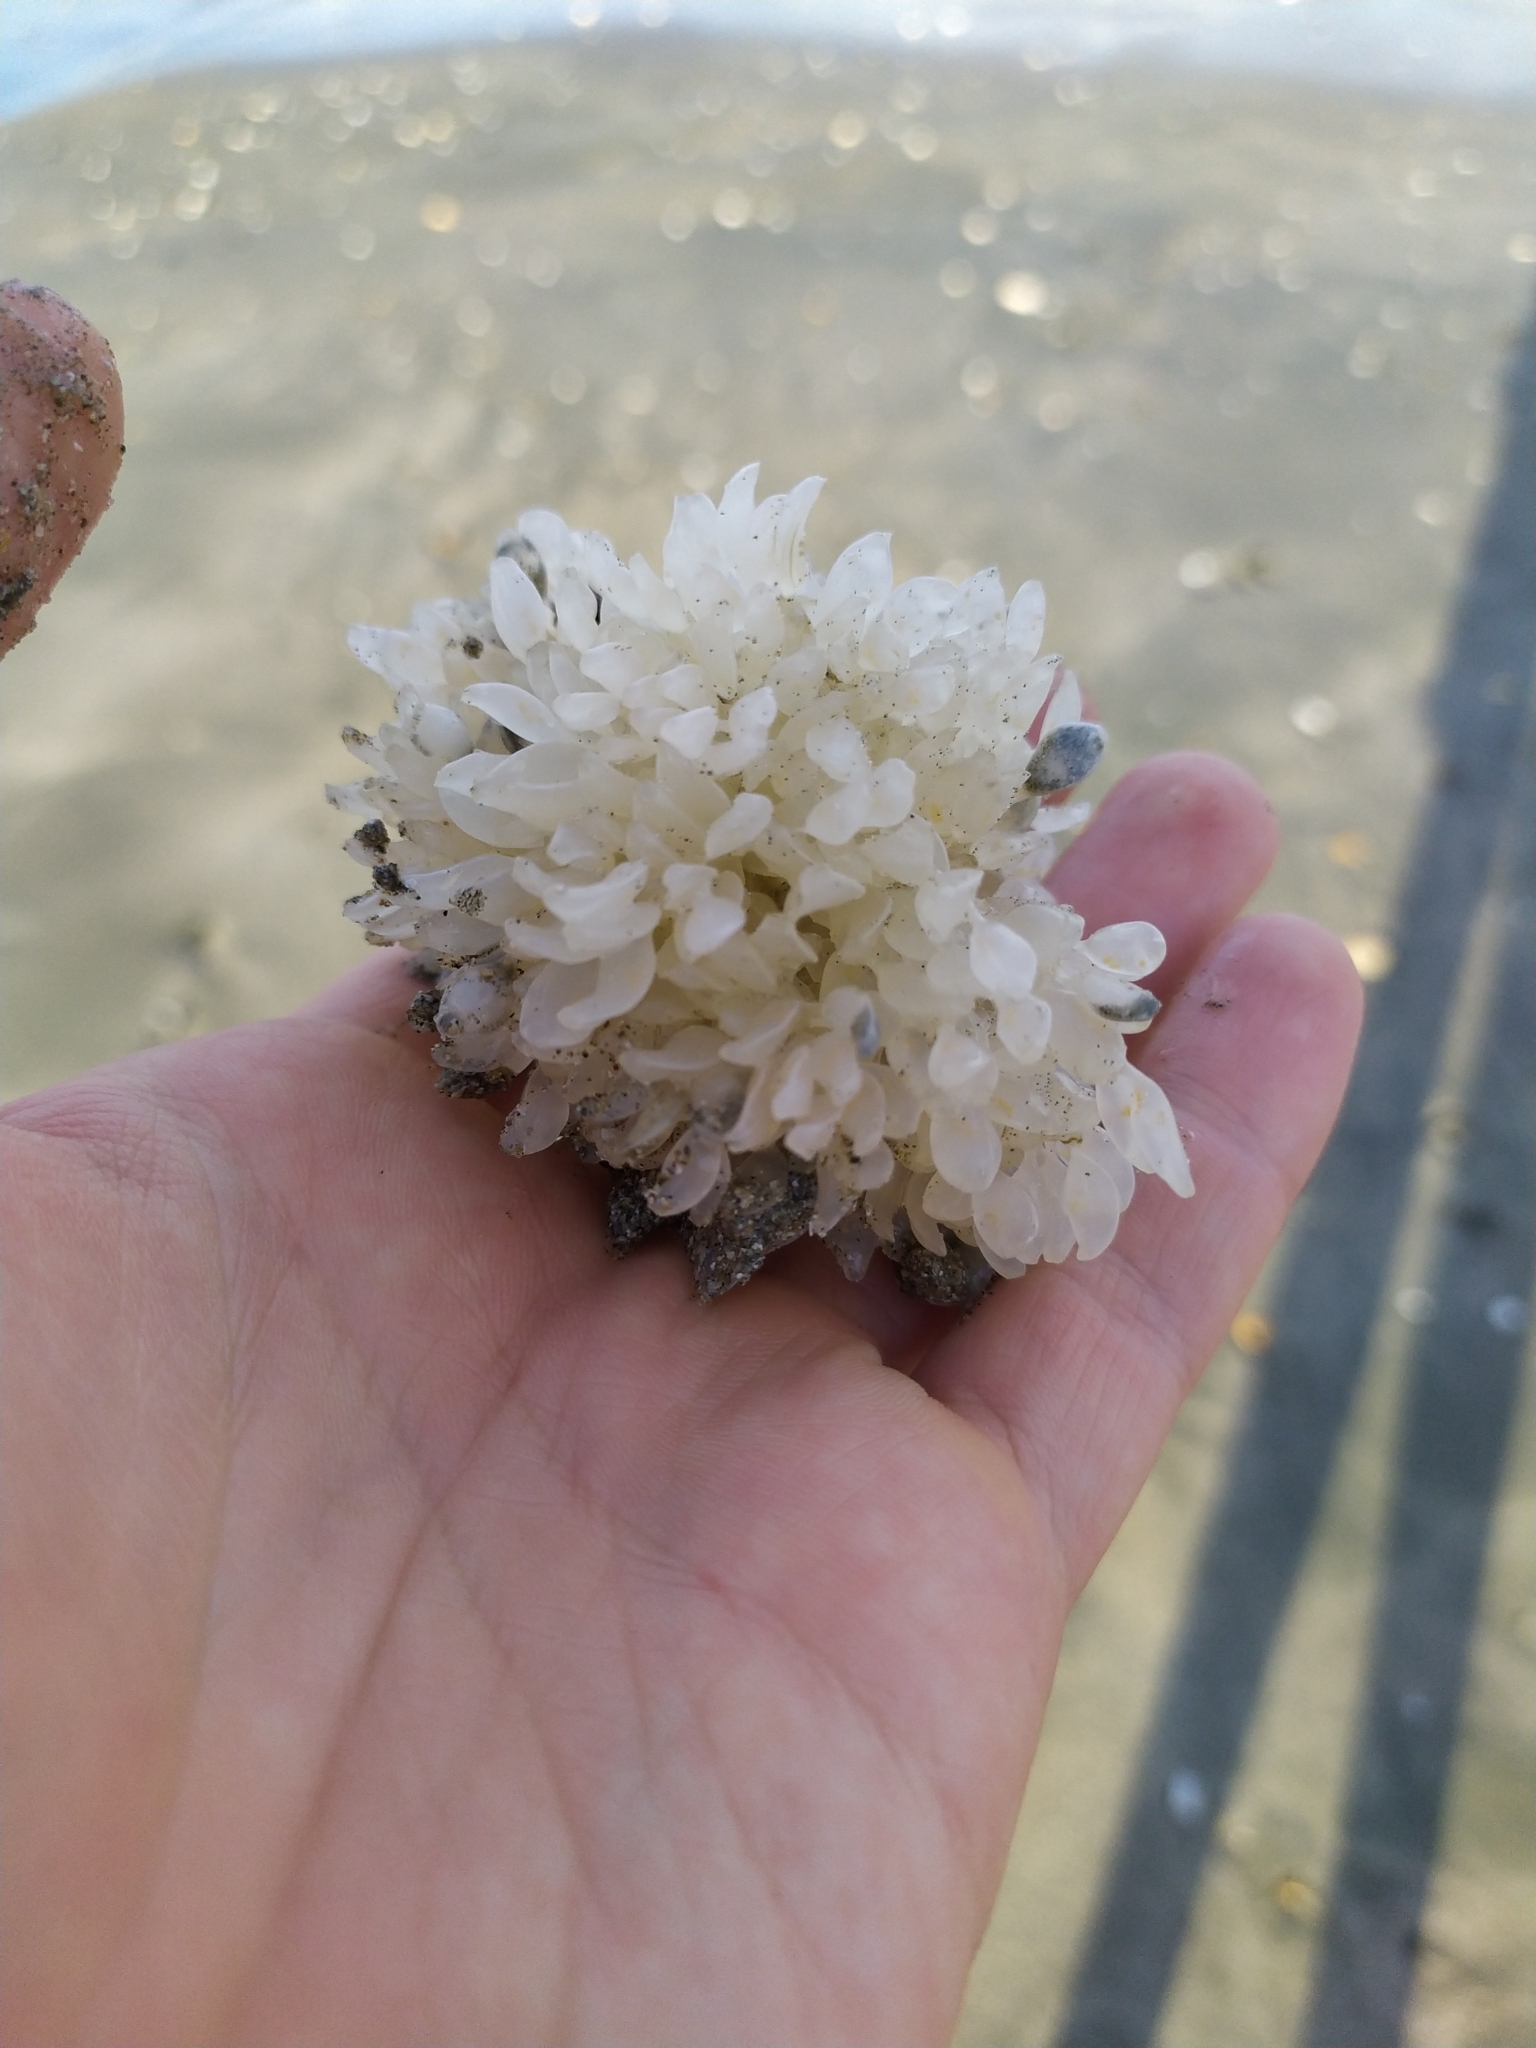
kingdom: Animalia
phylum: Mollusca
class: Gastropoda
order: Neogastropoda
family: Cominellidae
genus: Cominella
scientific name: Cominella adspersa
